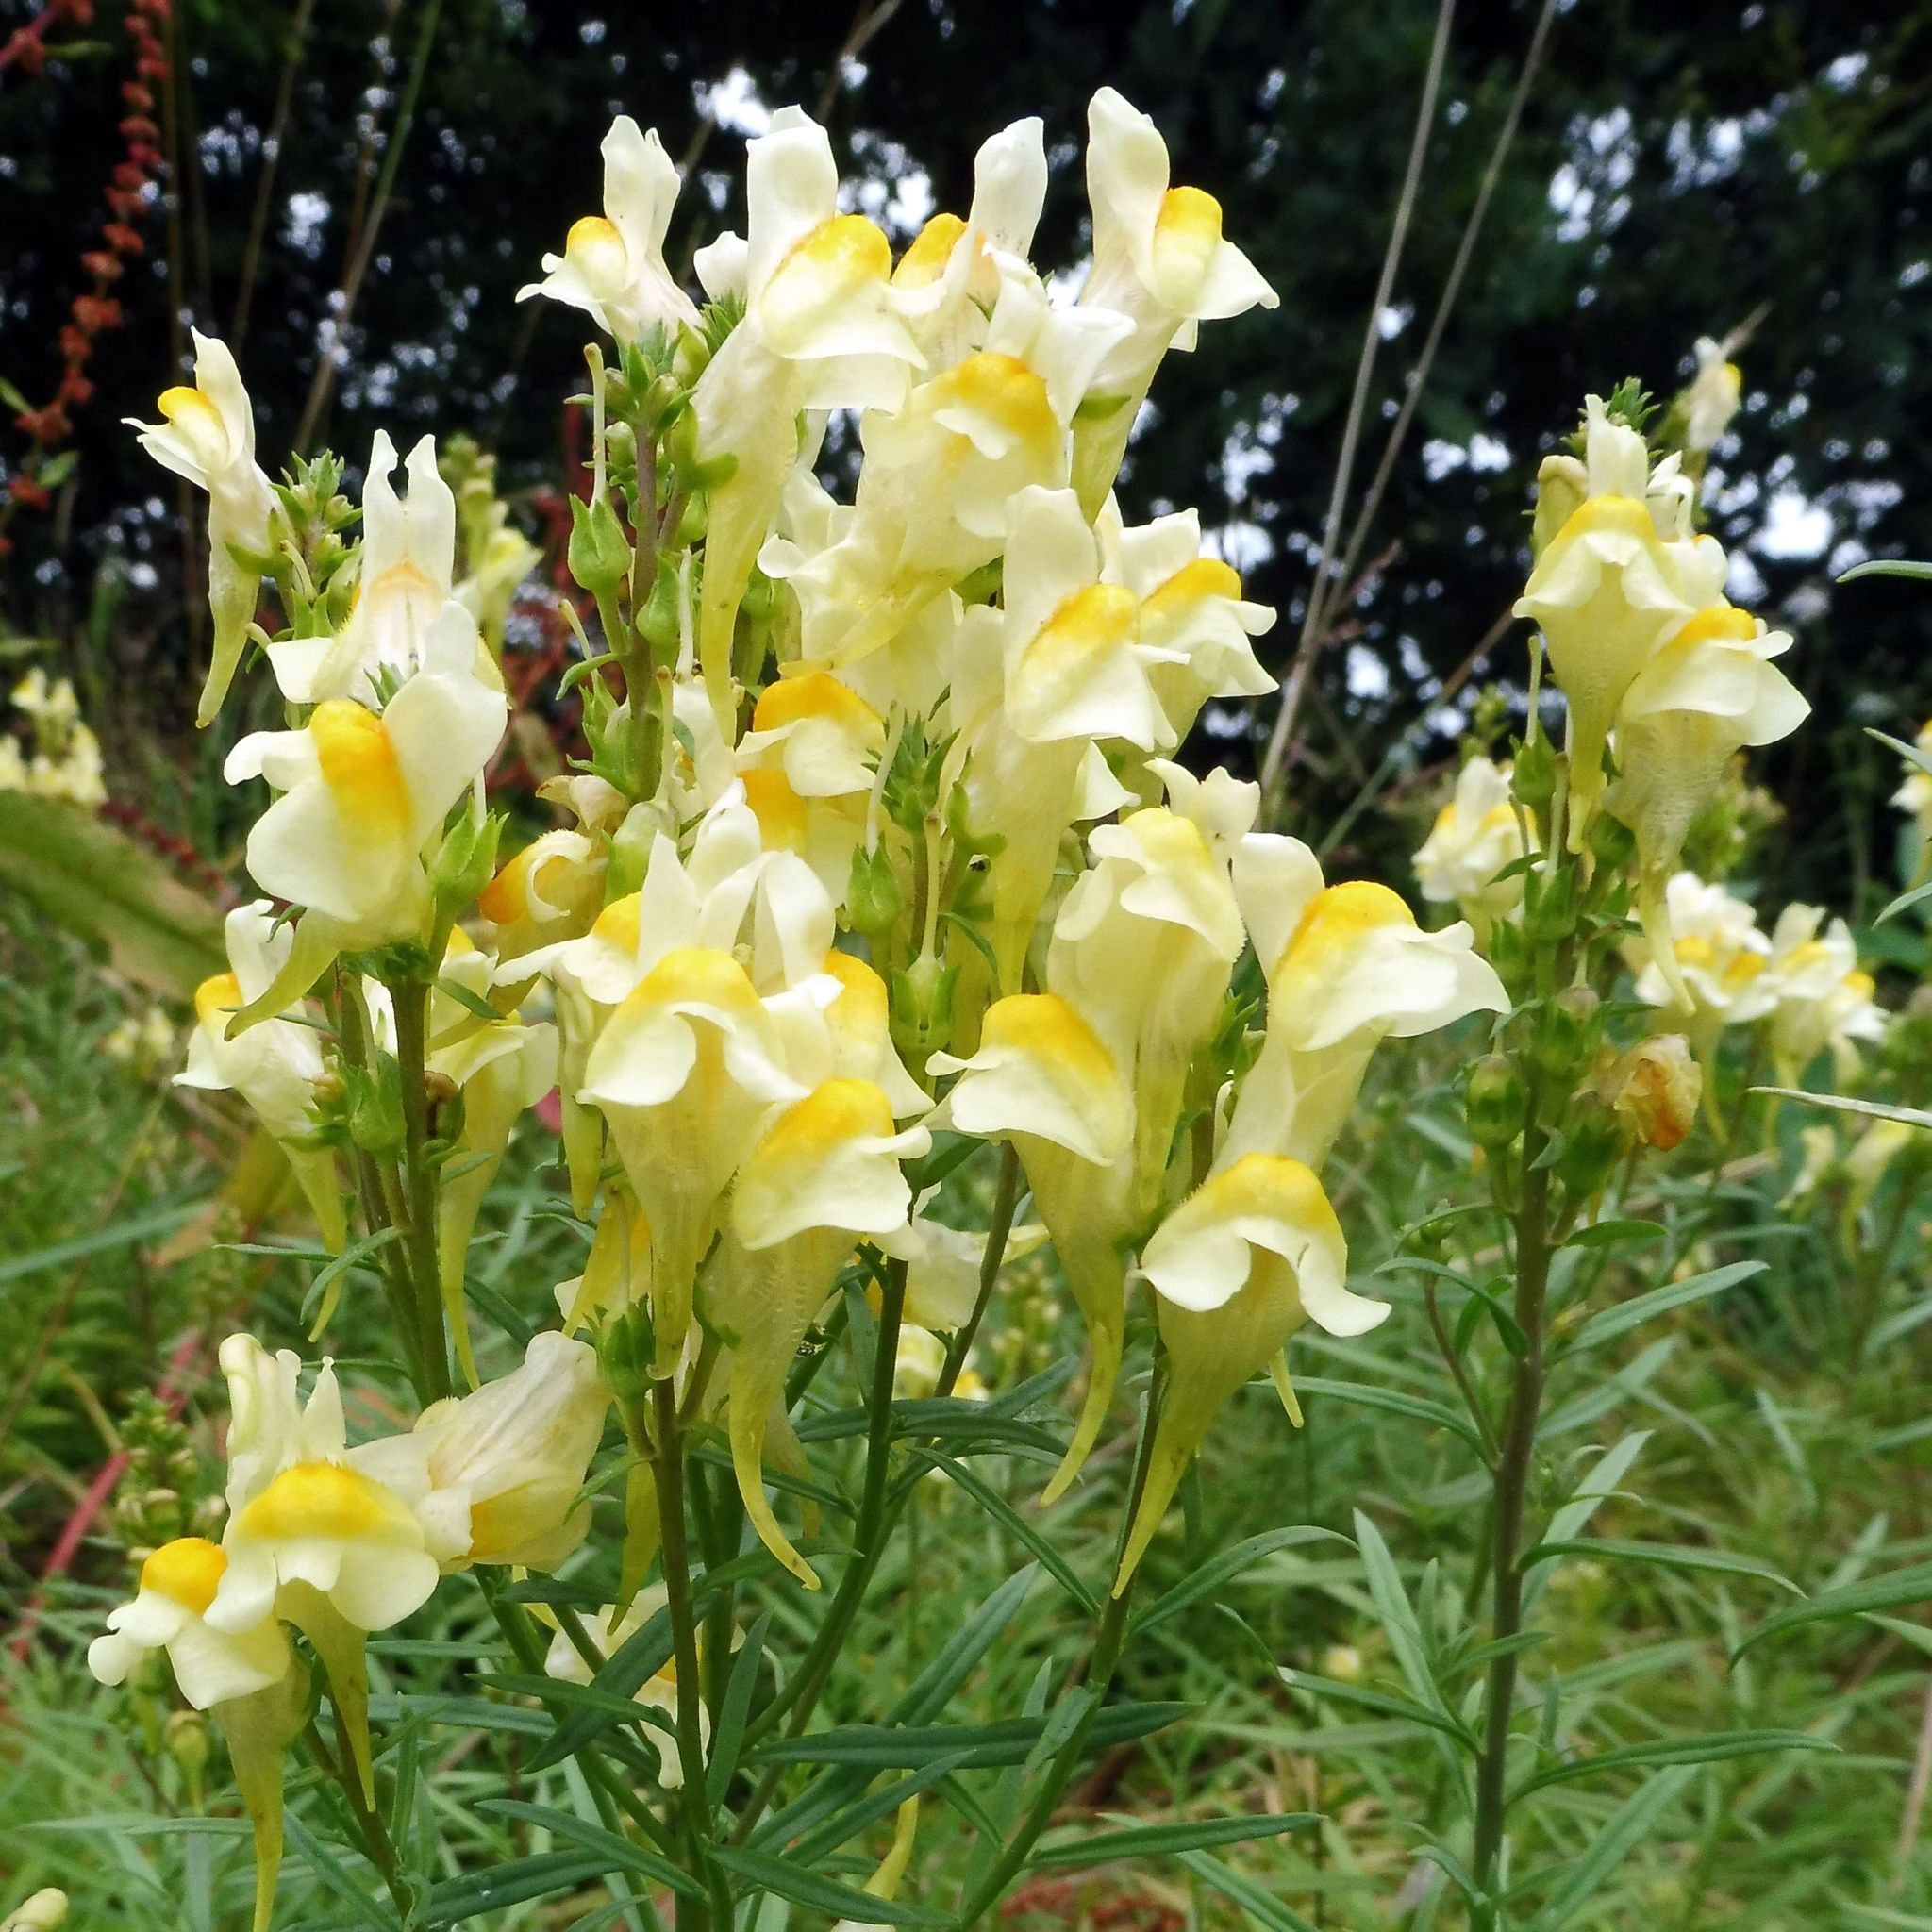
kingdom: Plantae
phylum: Tracheophyta
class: Magnoliopsida
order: Lamiales
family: Plantaginaceae
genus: Linaria
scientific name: Linaria vulgaris
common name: Butter and eggs
